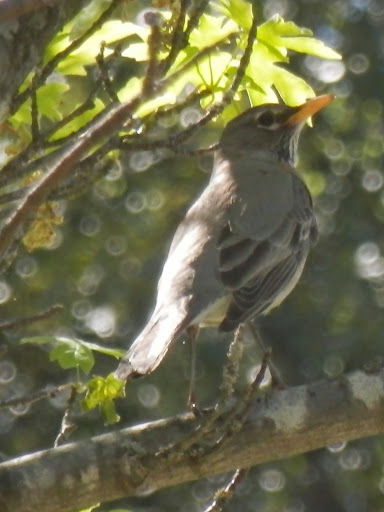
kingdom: Animalia
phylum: Chordata
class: Aves
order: Passeriformes
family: Turdidae
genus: Turdus
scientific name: Turdus migratorius
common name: American robin
